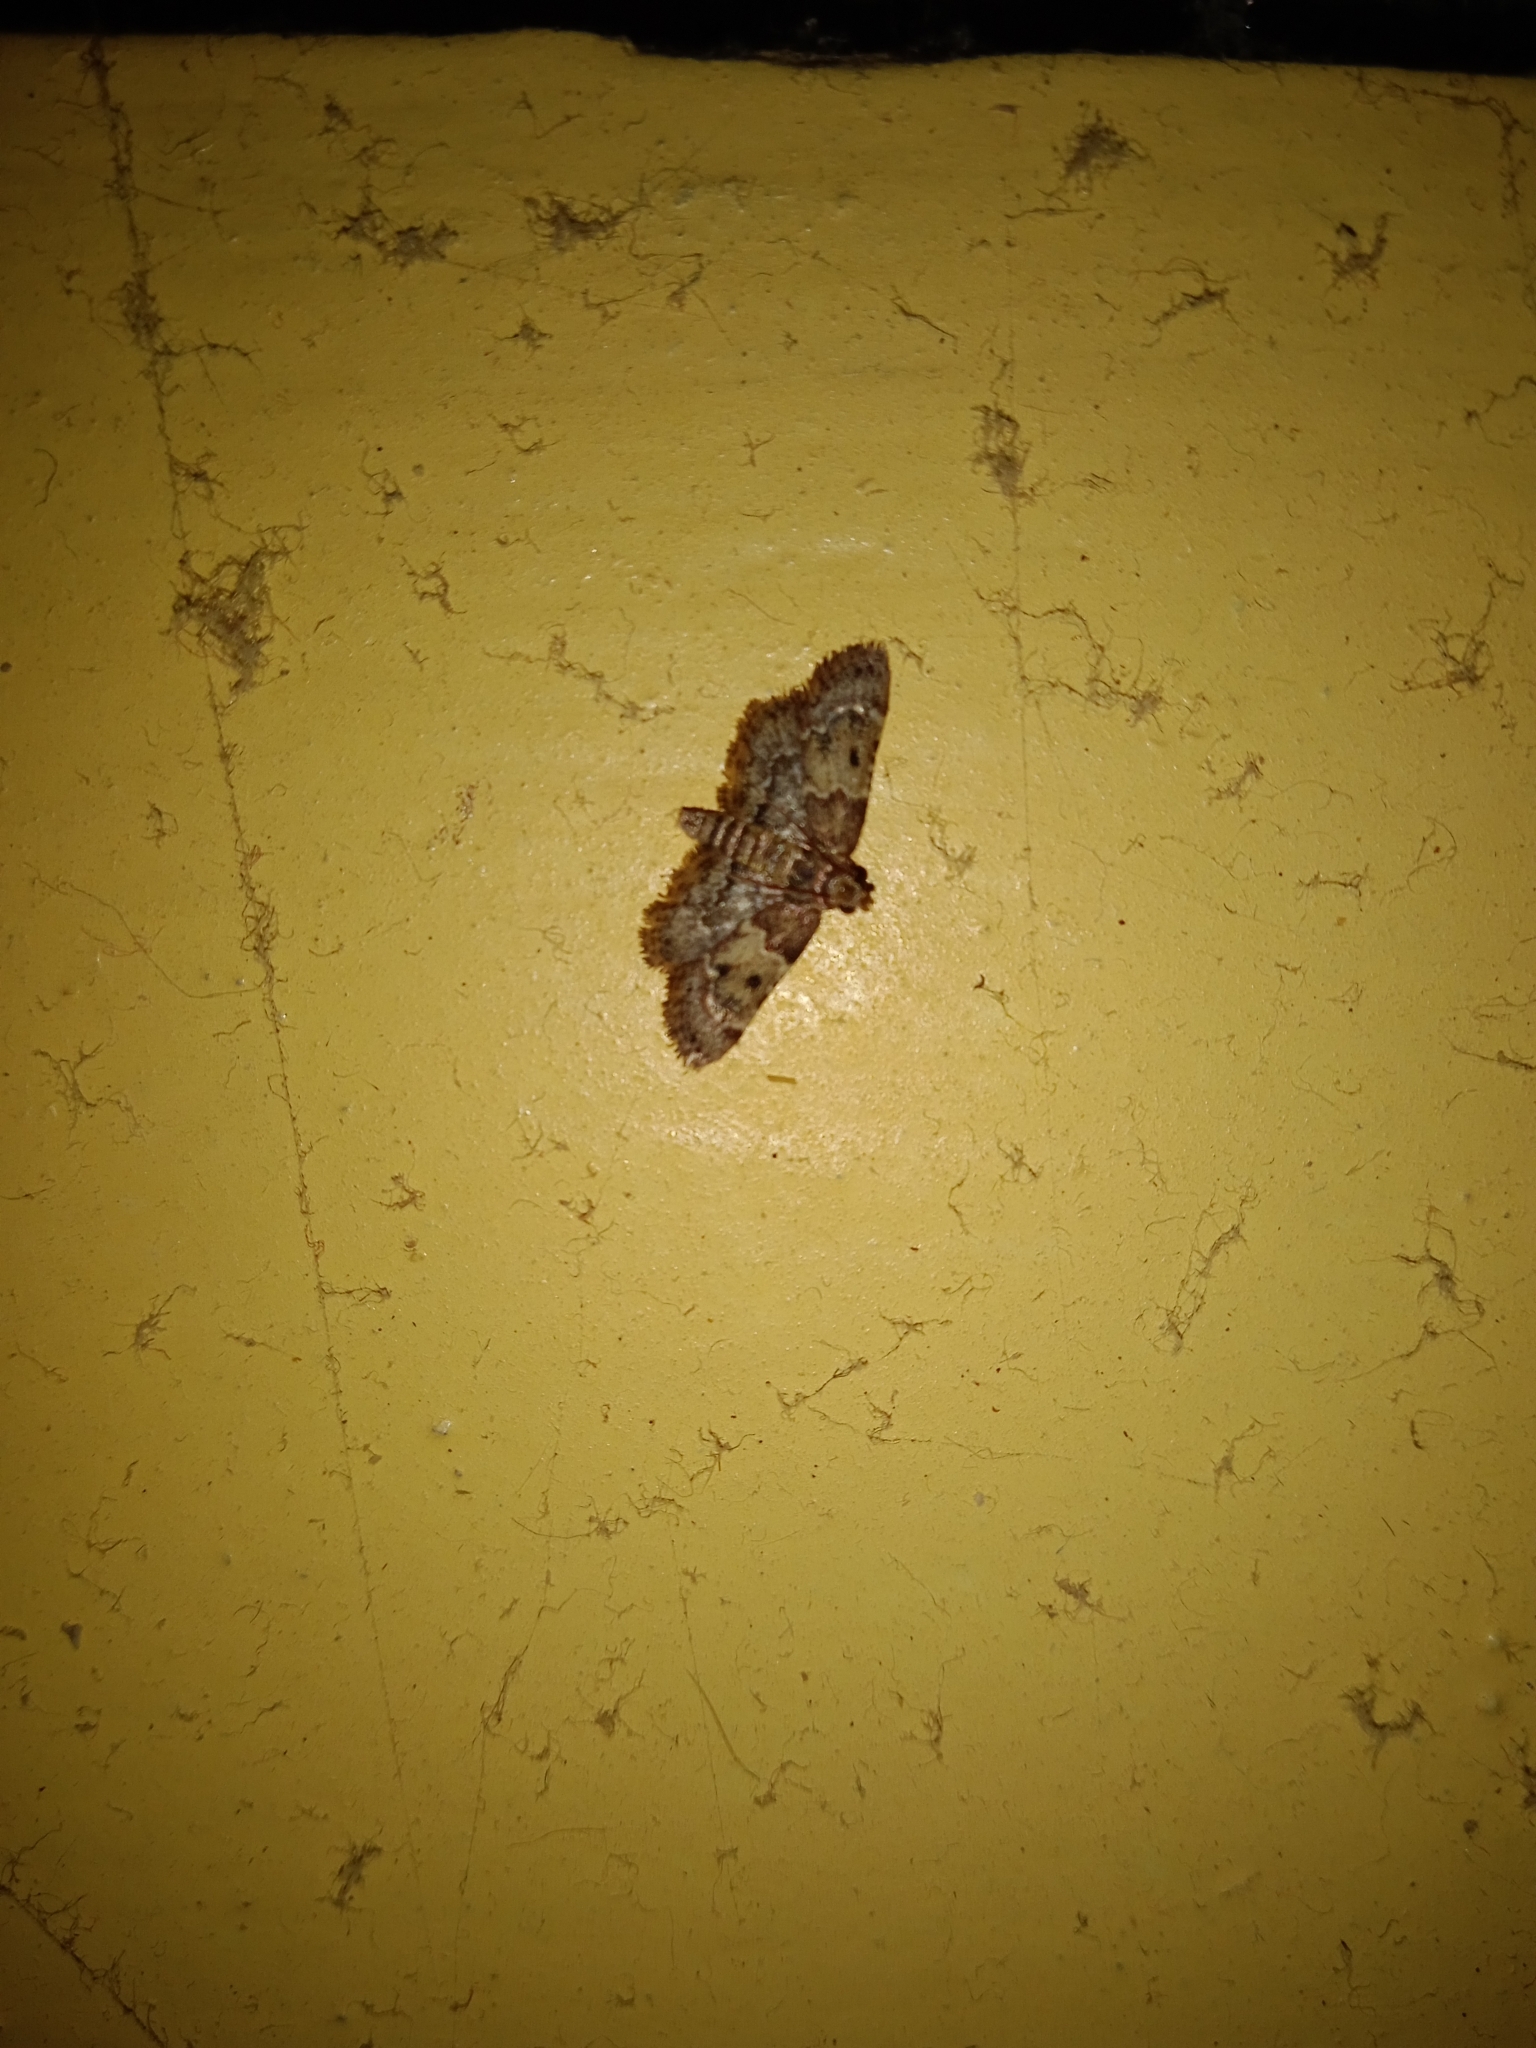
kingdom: Animalia
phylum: Arthropoda
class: Insecta
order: Lepidoptera
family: Pyralidae
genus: Pyralis
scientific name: Pyralis manihotalis
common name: Moth
